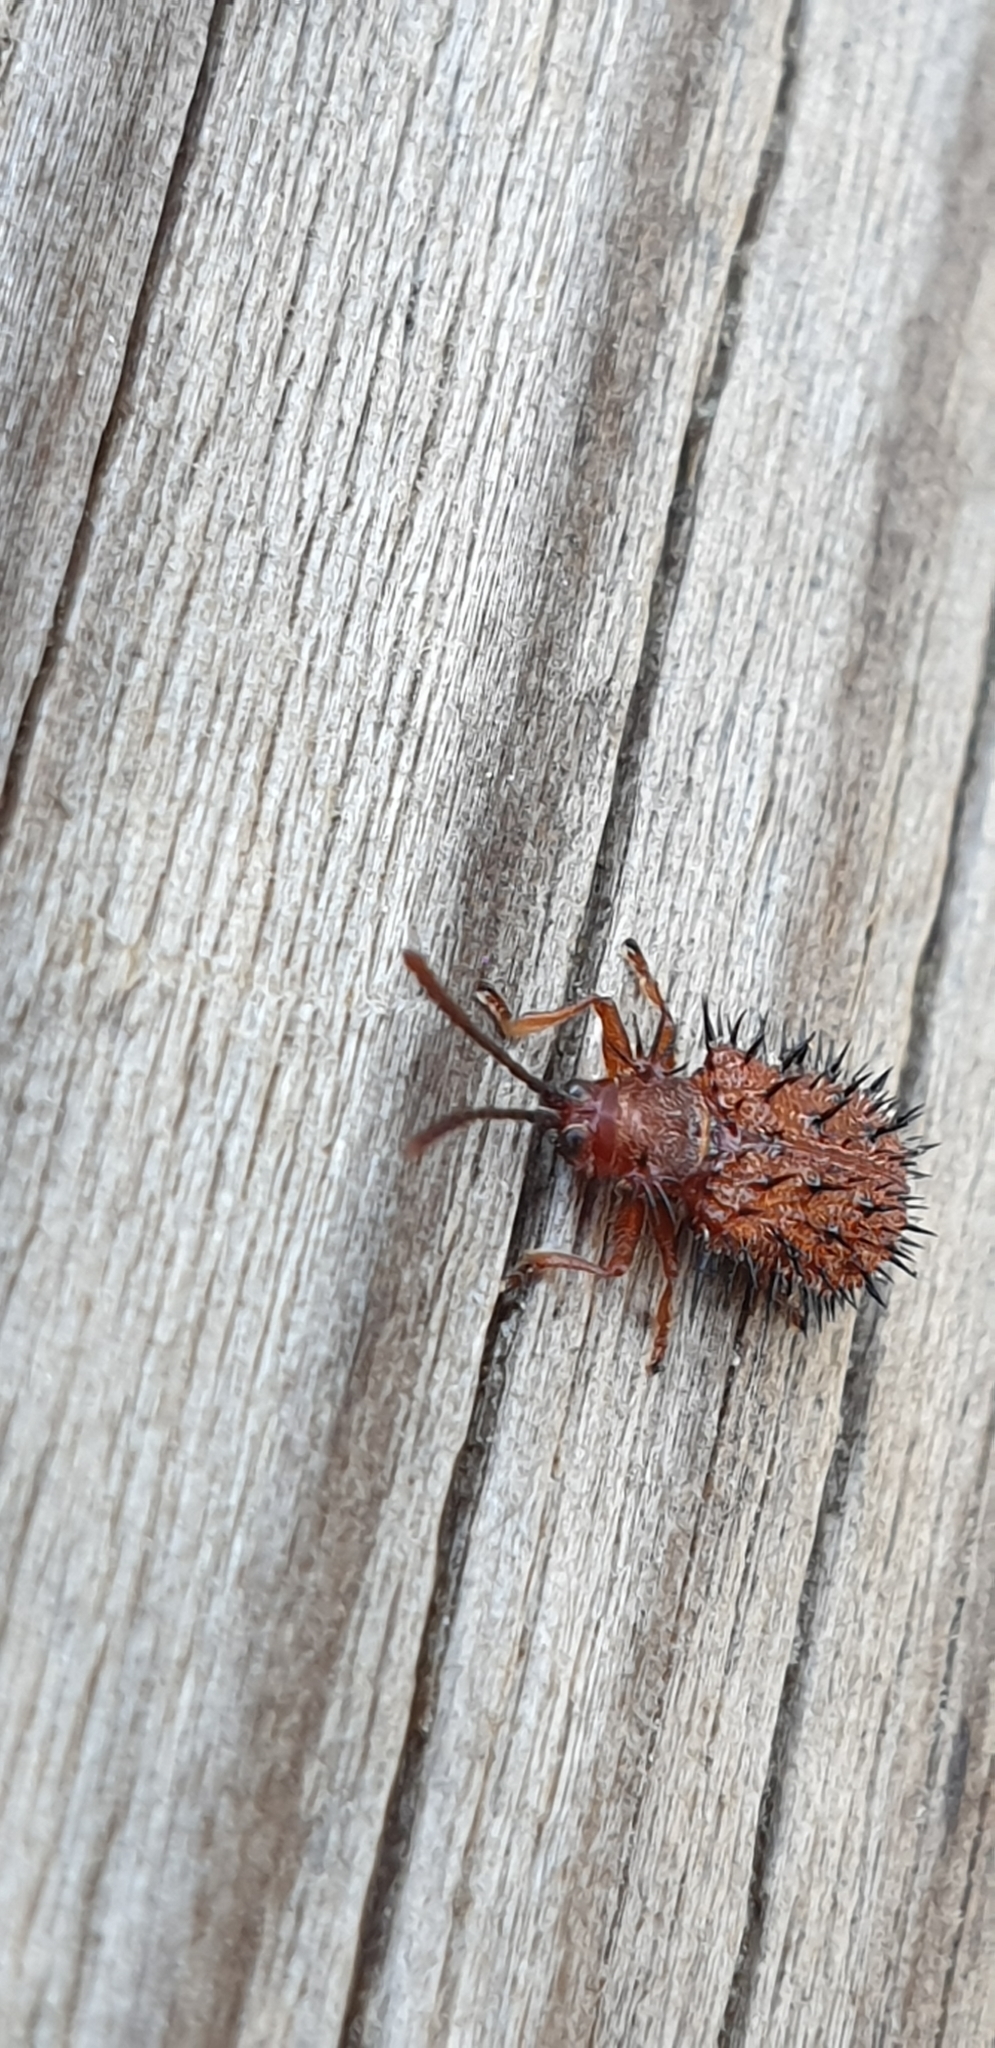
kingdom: Animalia
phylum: Arthropoda
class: Insecta
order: Coleoptera
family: Chrysomelidae
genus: Dicladispa
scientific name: Dicladispa testacea
